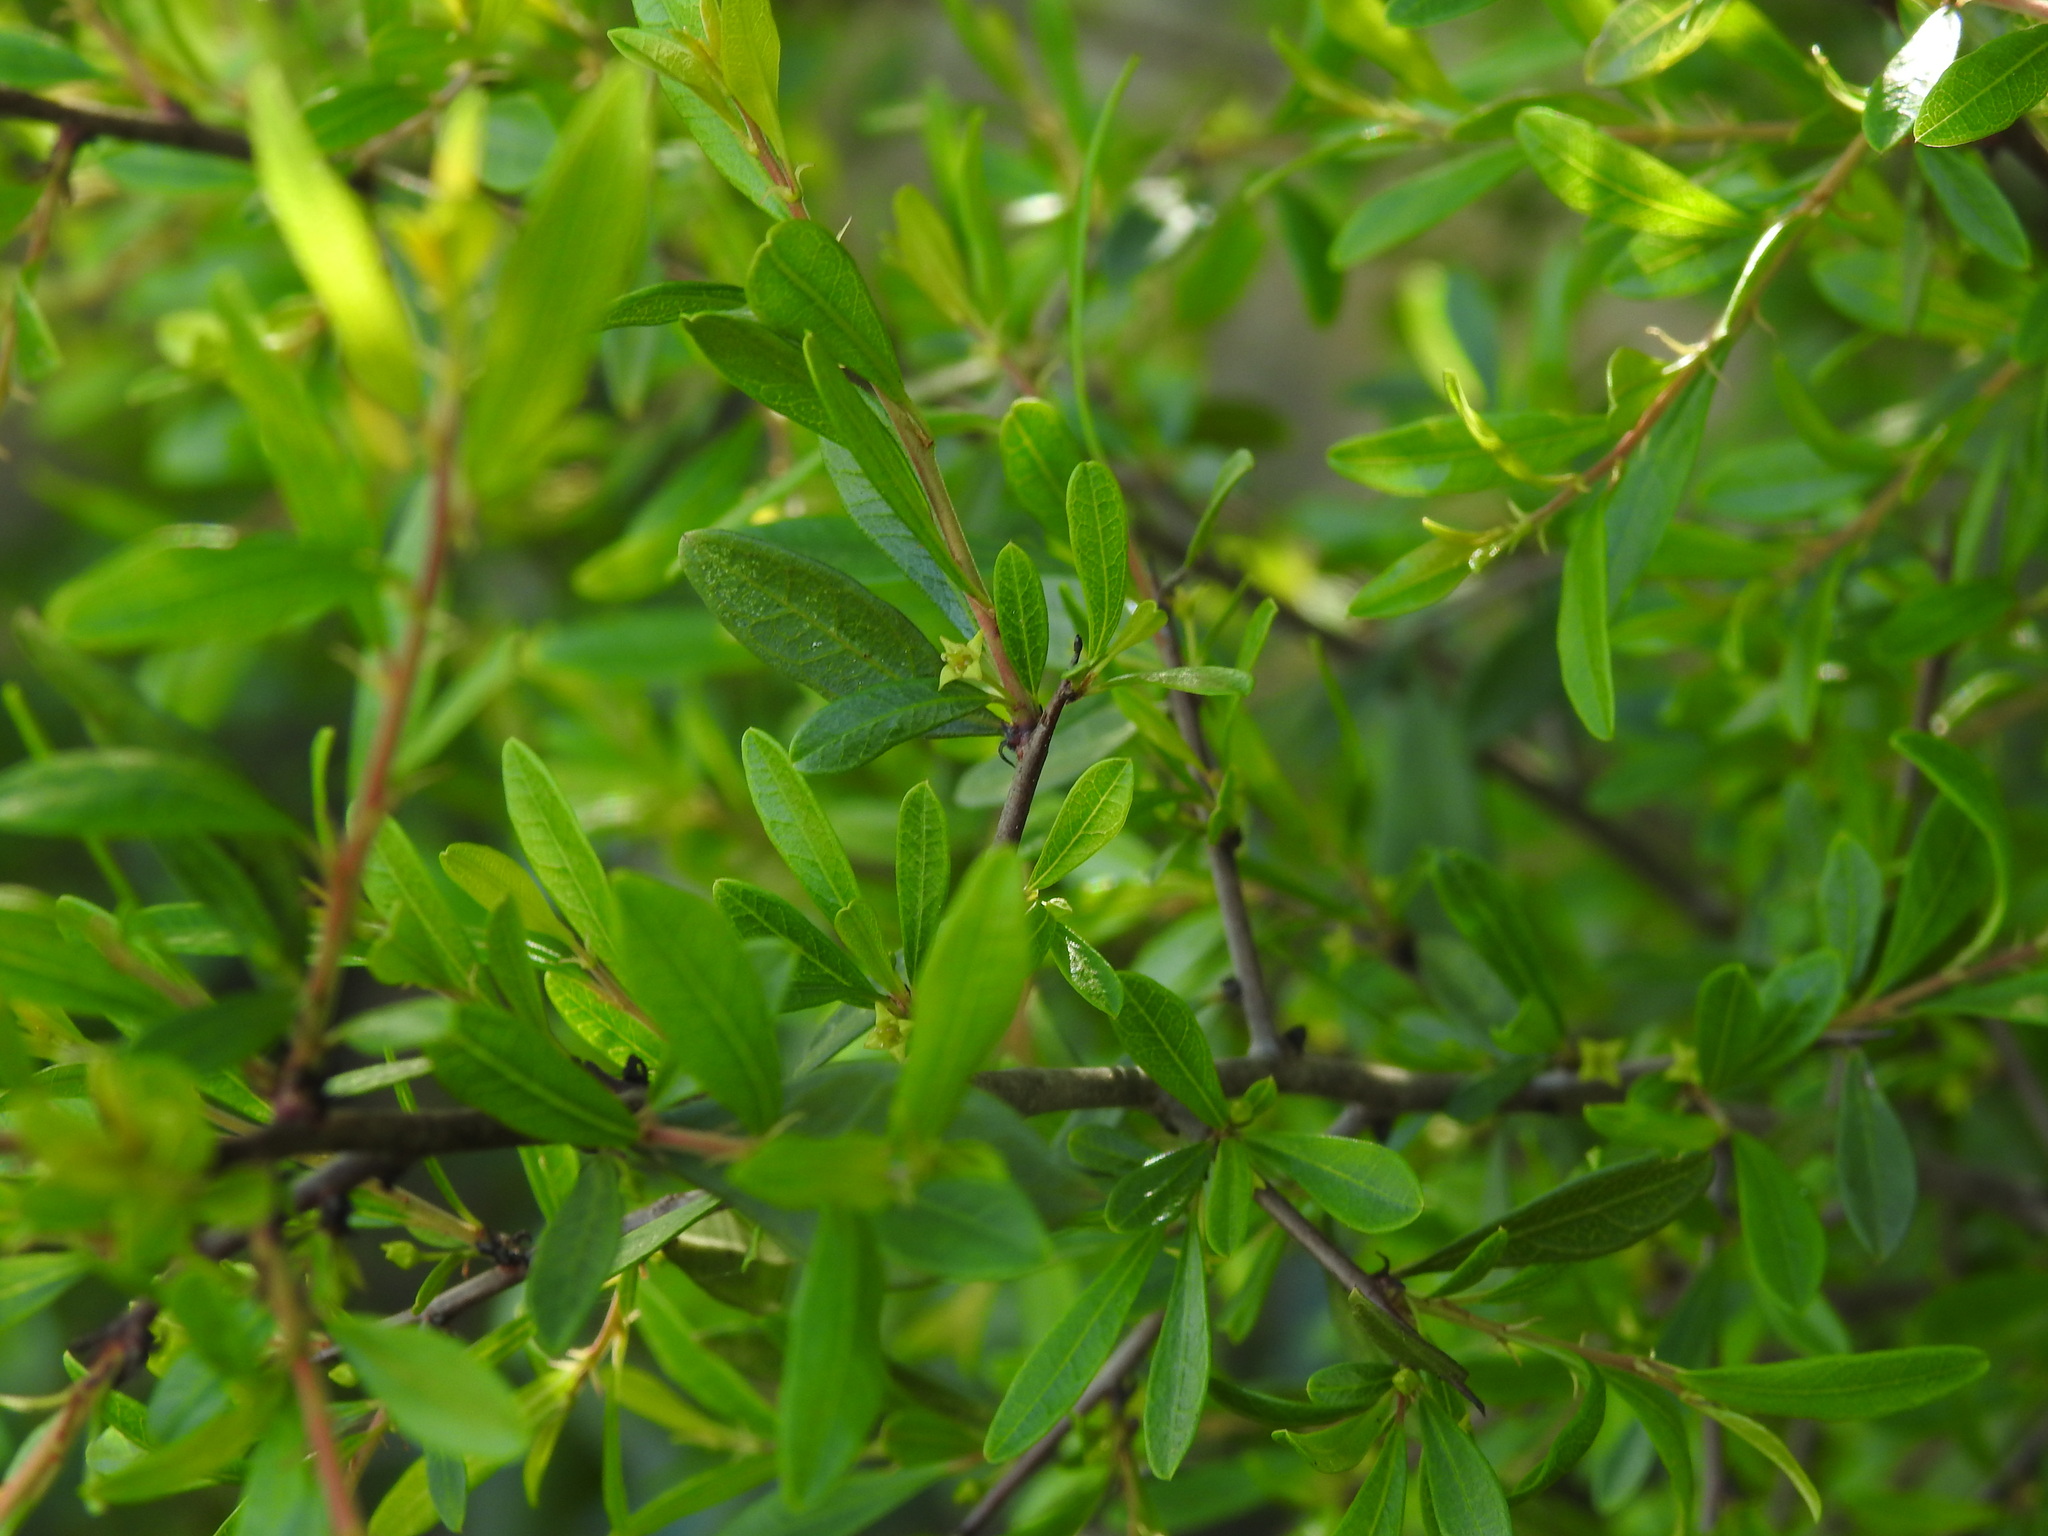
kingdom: Plantae
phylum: Tracheophyta
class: Magnoliopsida
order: Rosales
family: Rhamnaceae
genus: Rhamnus
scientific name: Rhamnus oleoides
